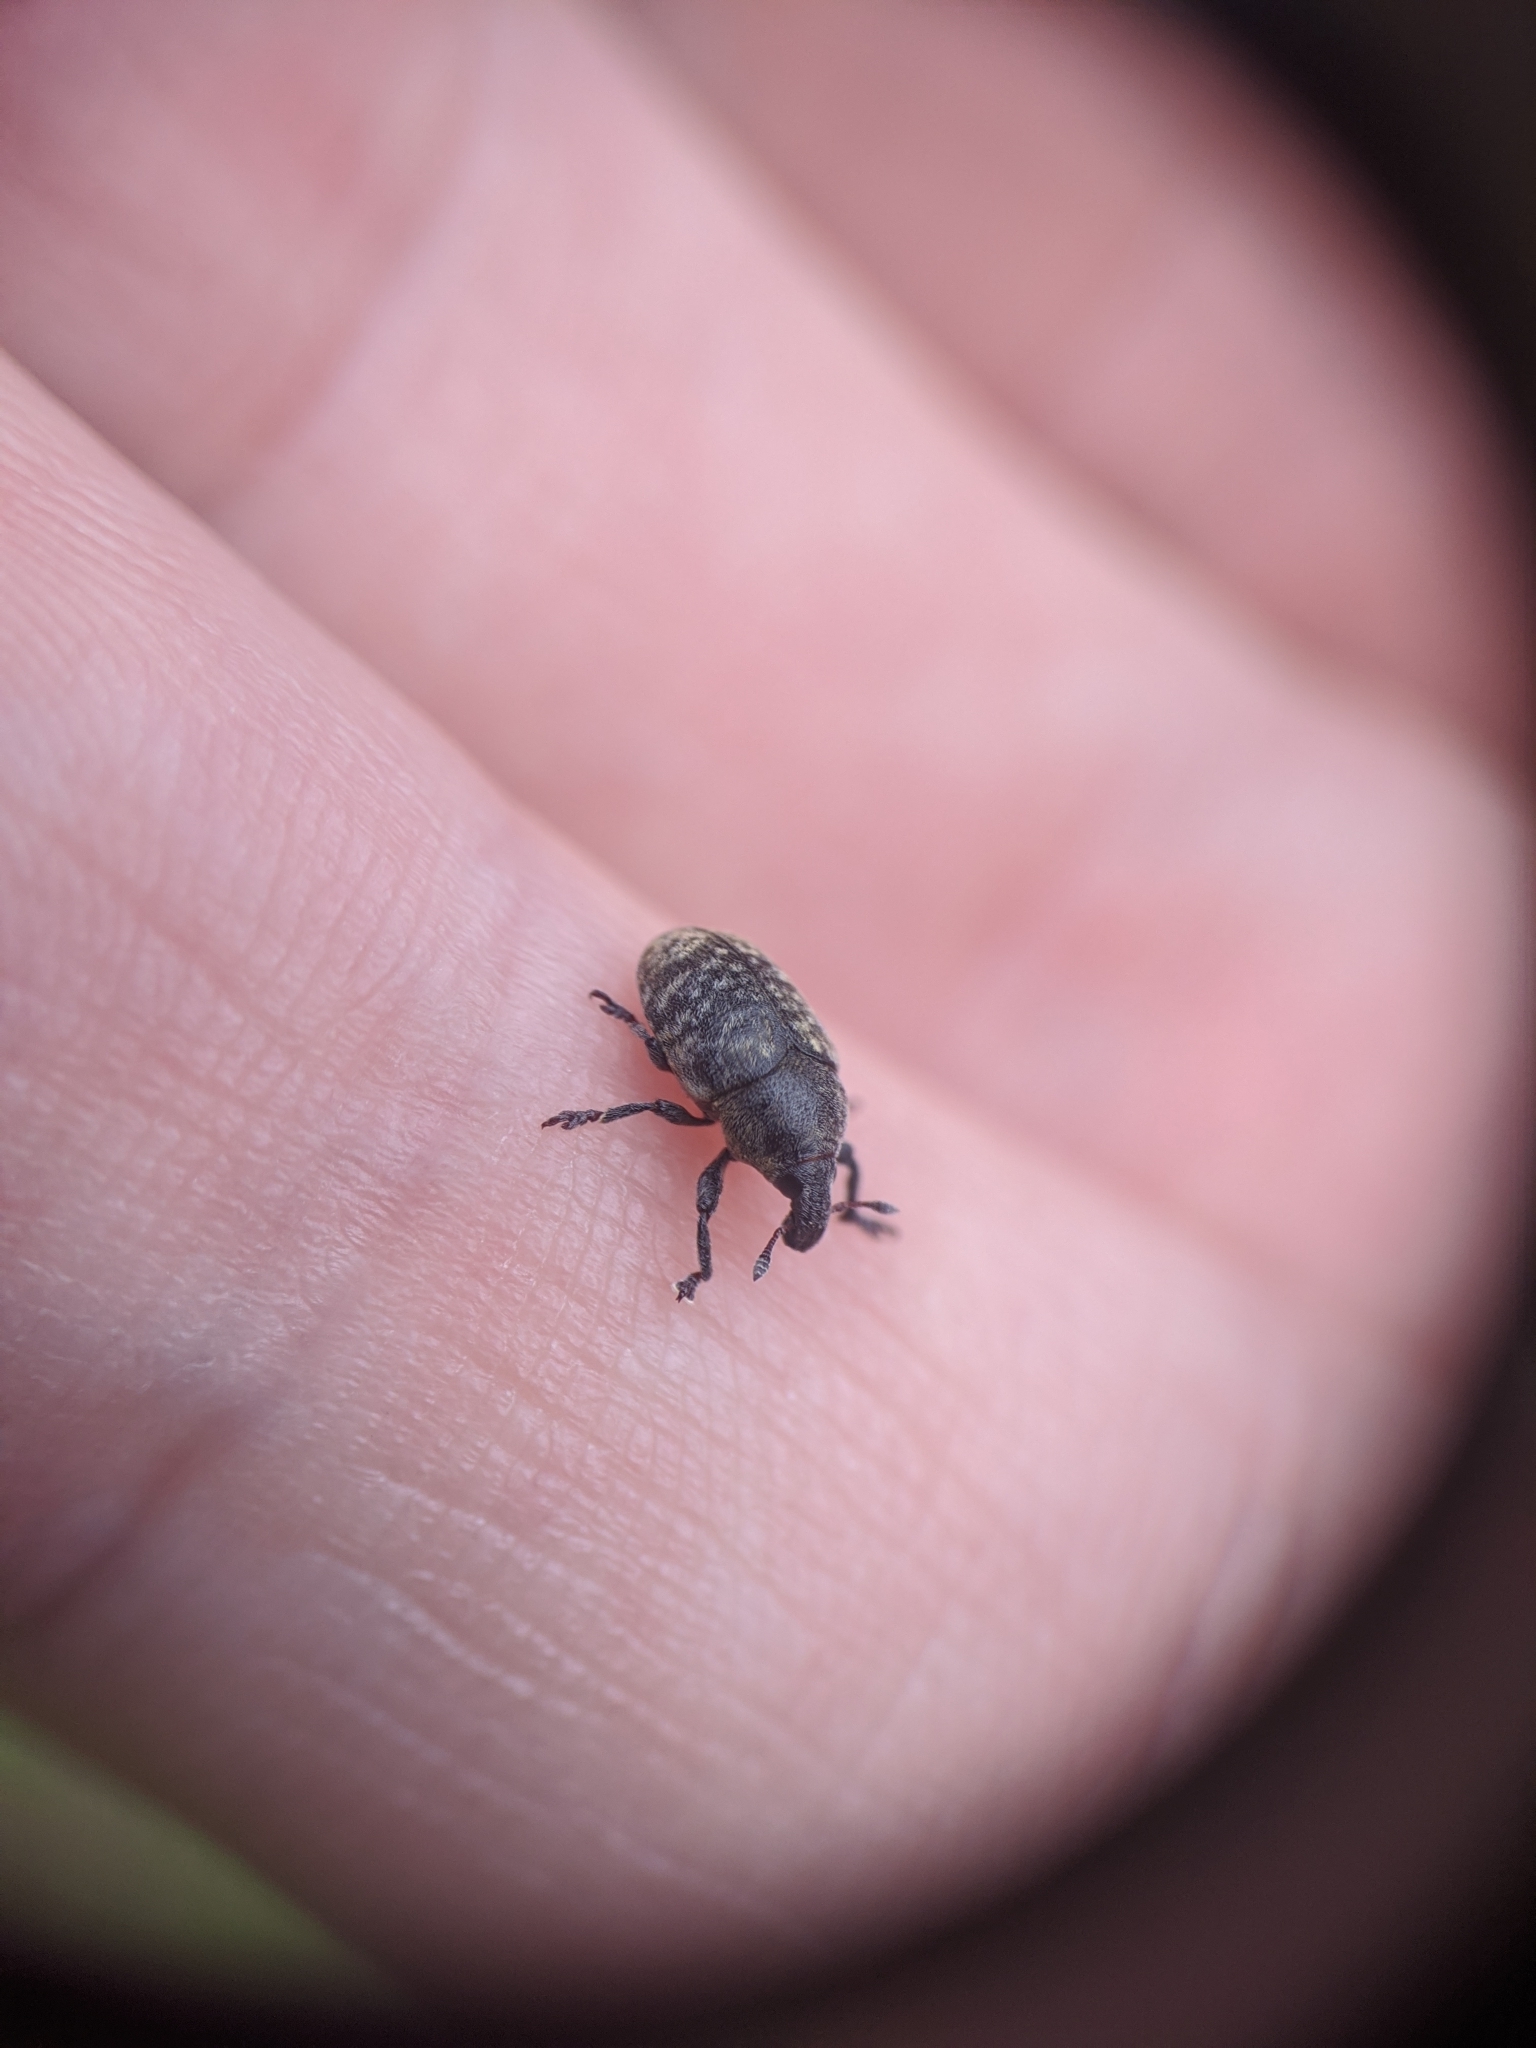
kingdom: Animalia
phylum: Arthropoda
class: Insecta
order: Coleoptera
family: Curculionidae
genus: Larinus
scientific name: Larinus obtusus
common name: Weevil
